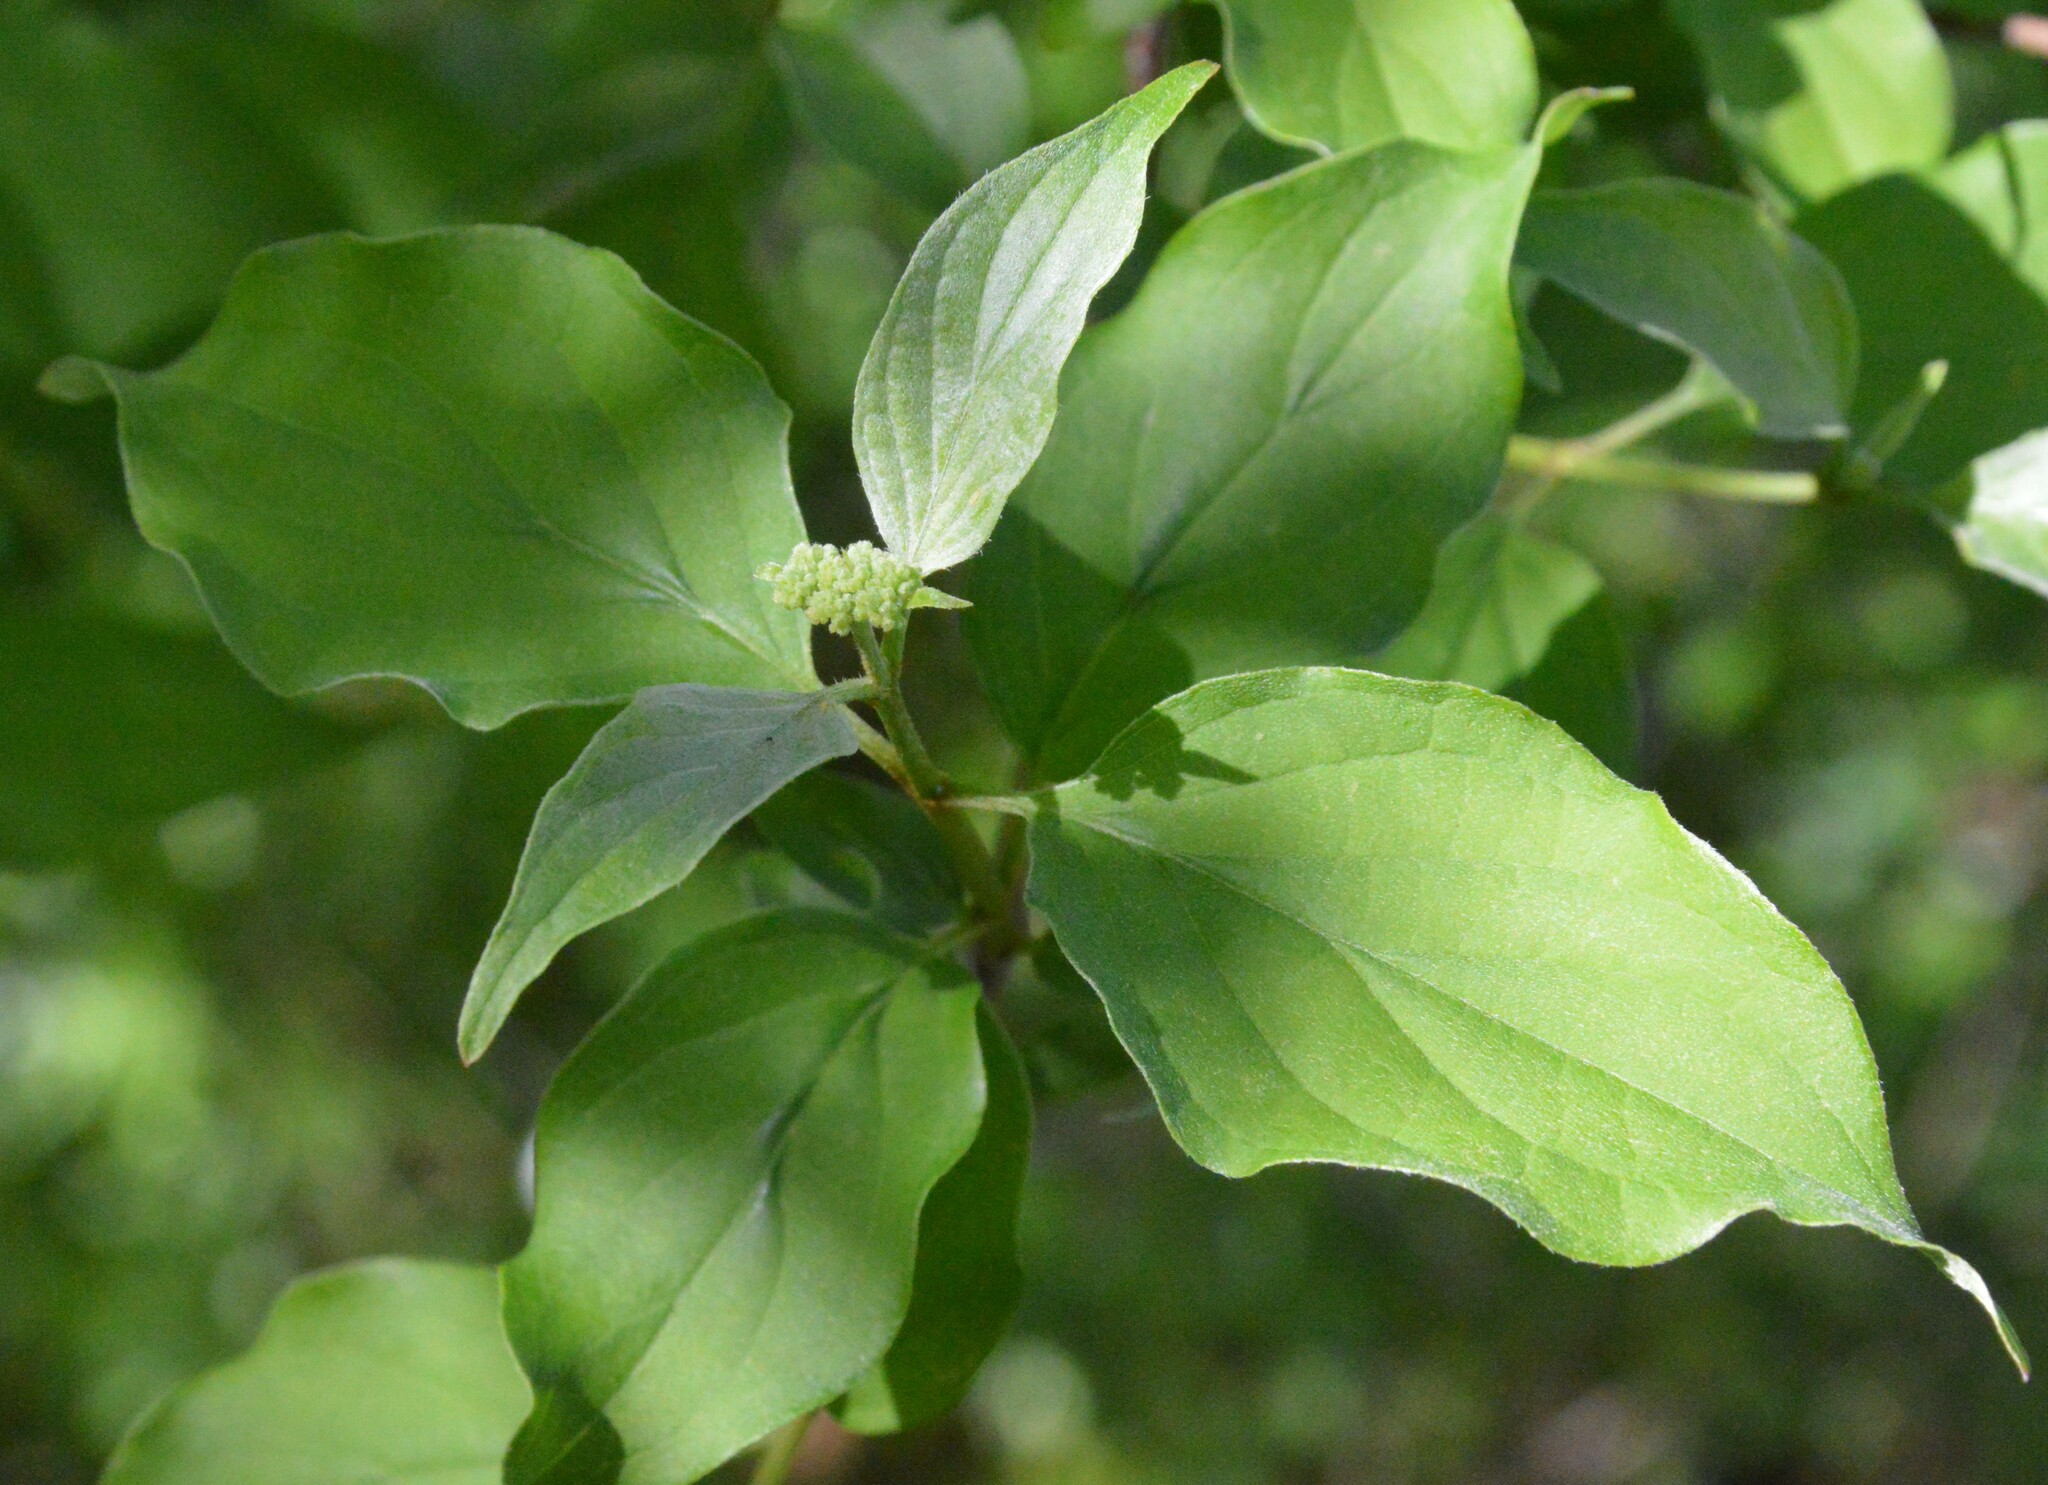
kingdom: Plantae
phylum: Tracheophyta
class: Magnoliopsida
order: Cornales
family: Cornaceae
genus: Cornus
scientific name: Cornus drummondii
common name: Rough-leaf dogwood
